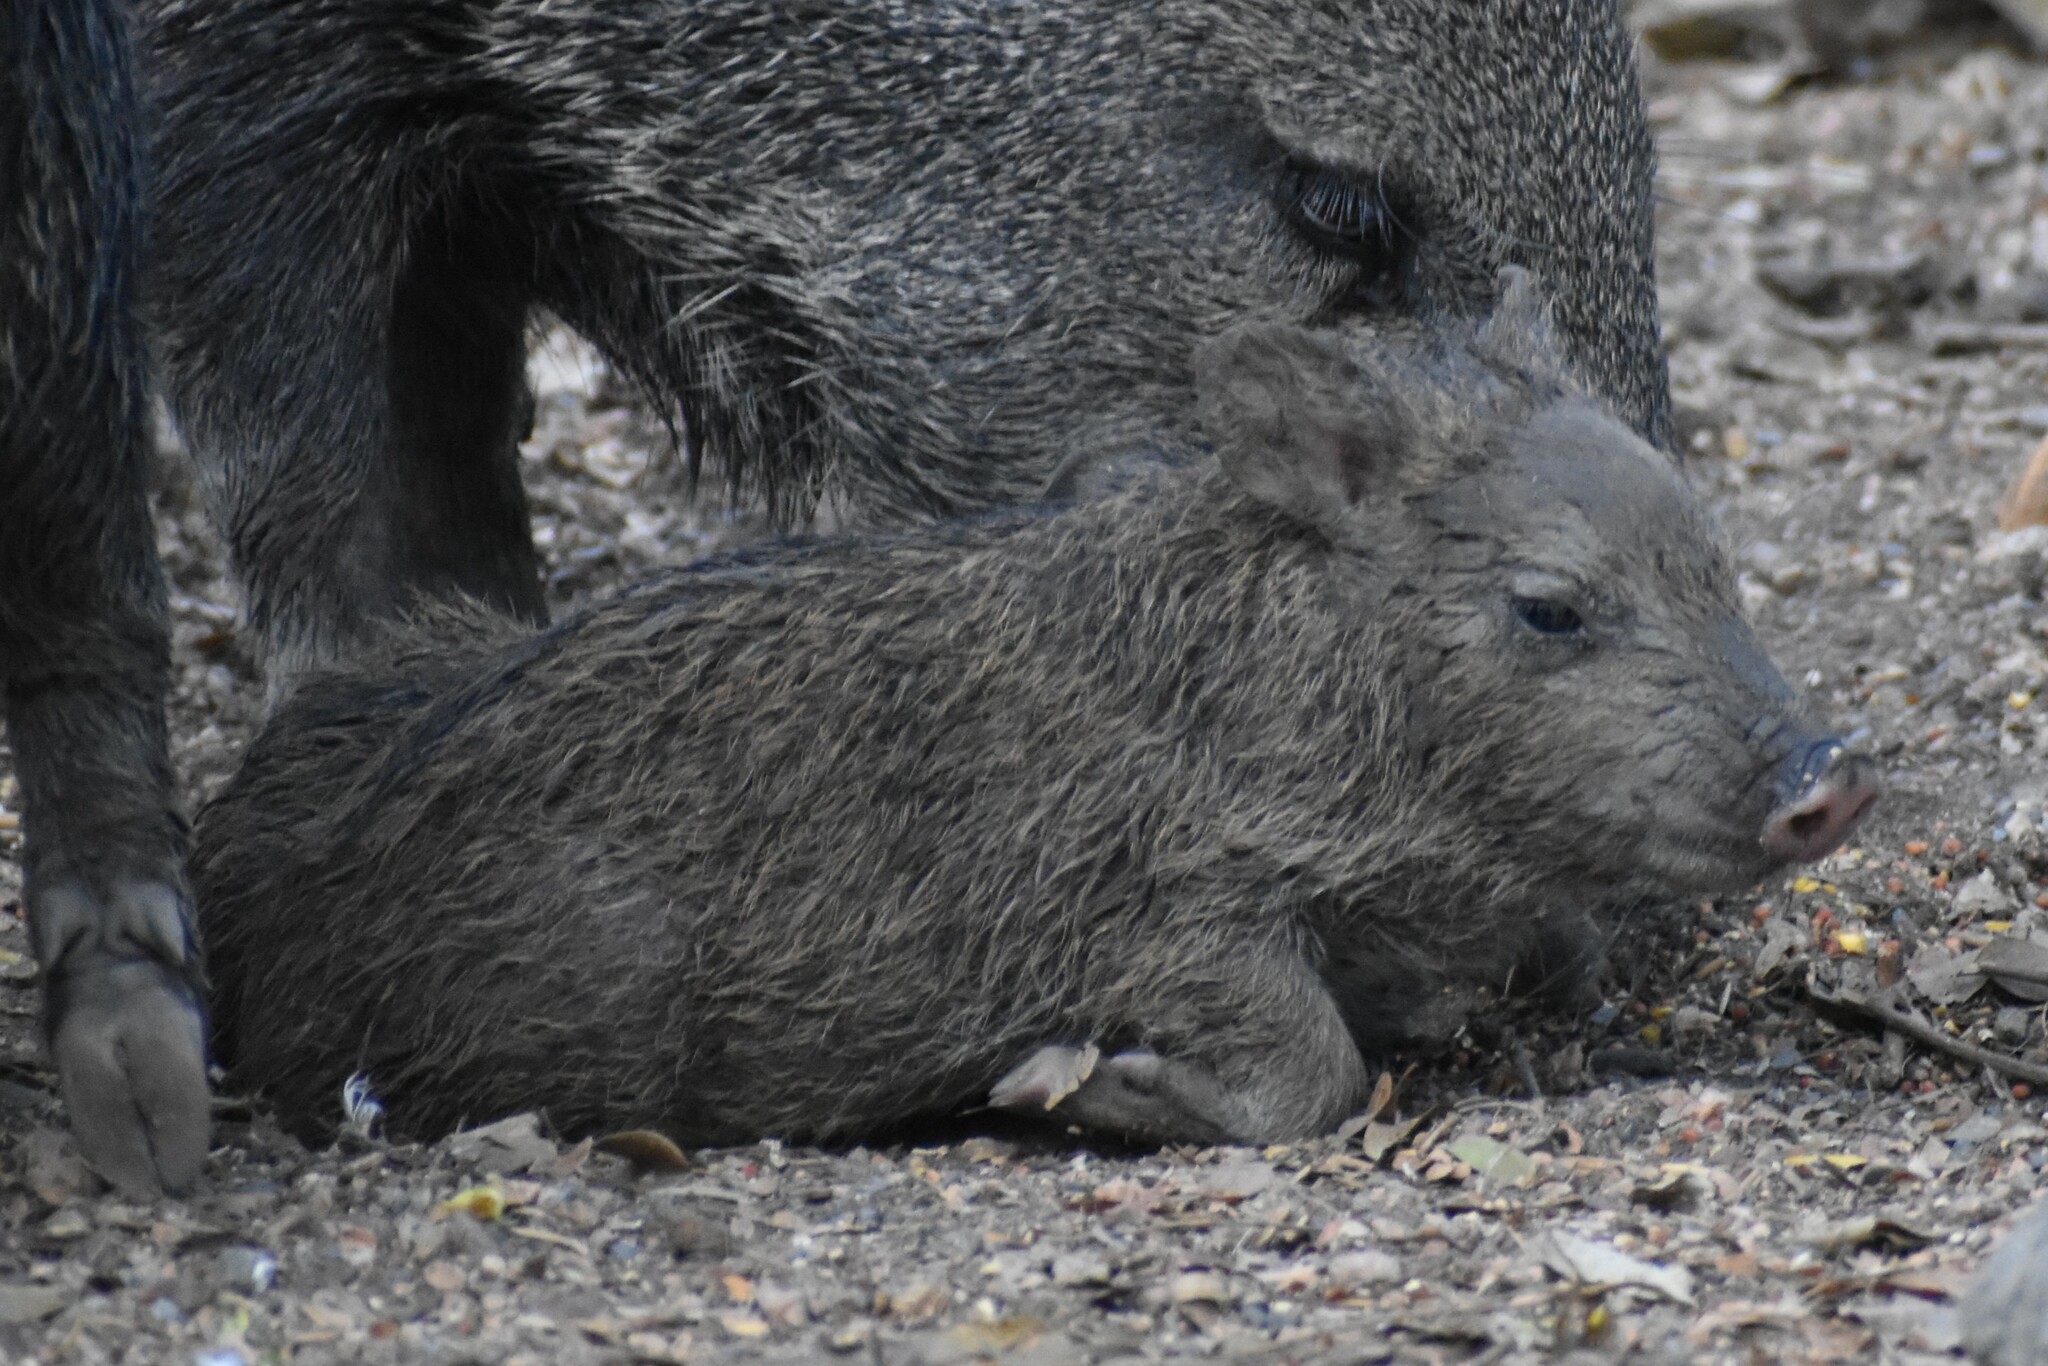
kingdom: Animalia
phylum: Chordata
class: Mammalia
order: Artiodactyla
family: Tayassuidae
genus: Pecari
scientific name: Pecari tajacu
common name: Collared peccary
